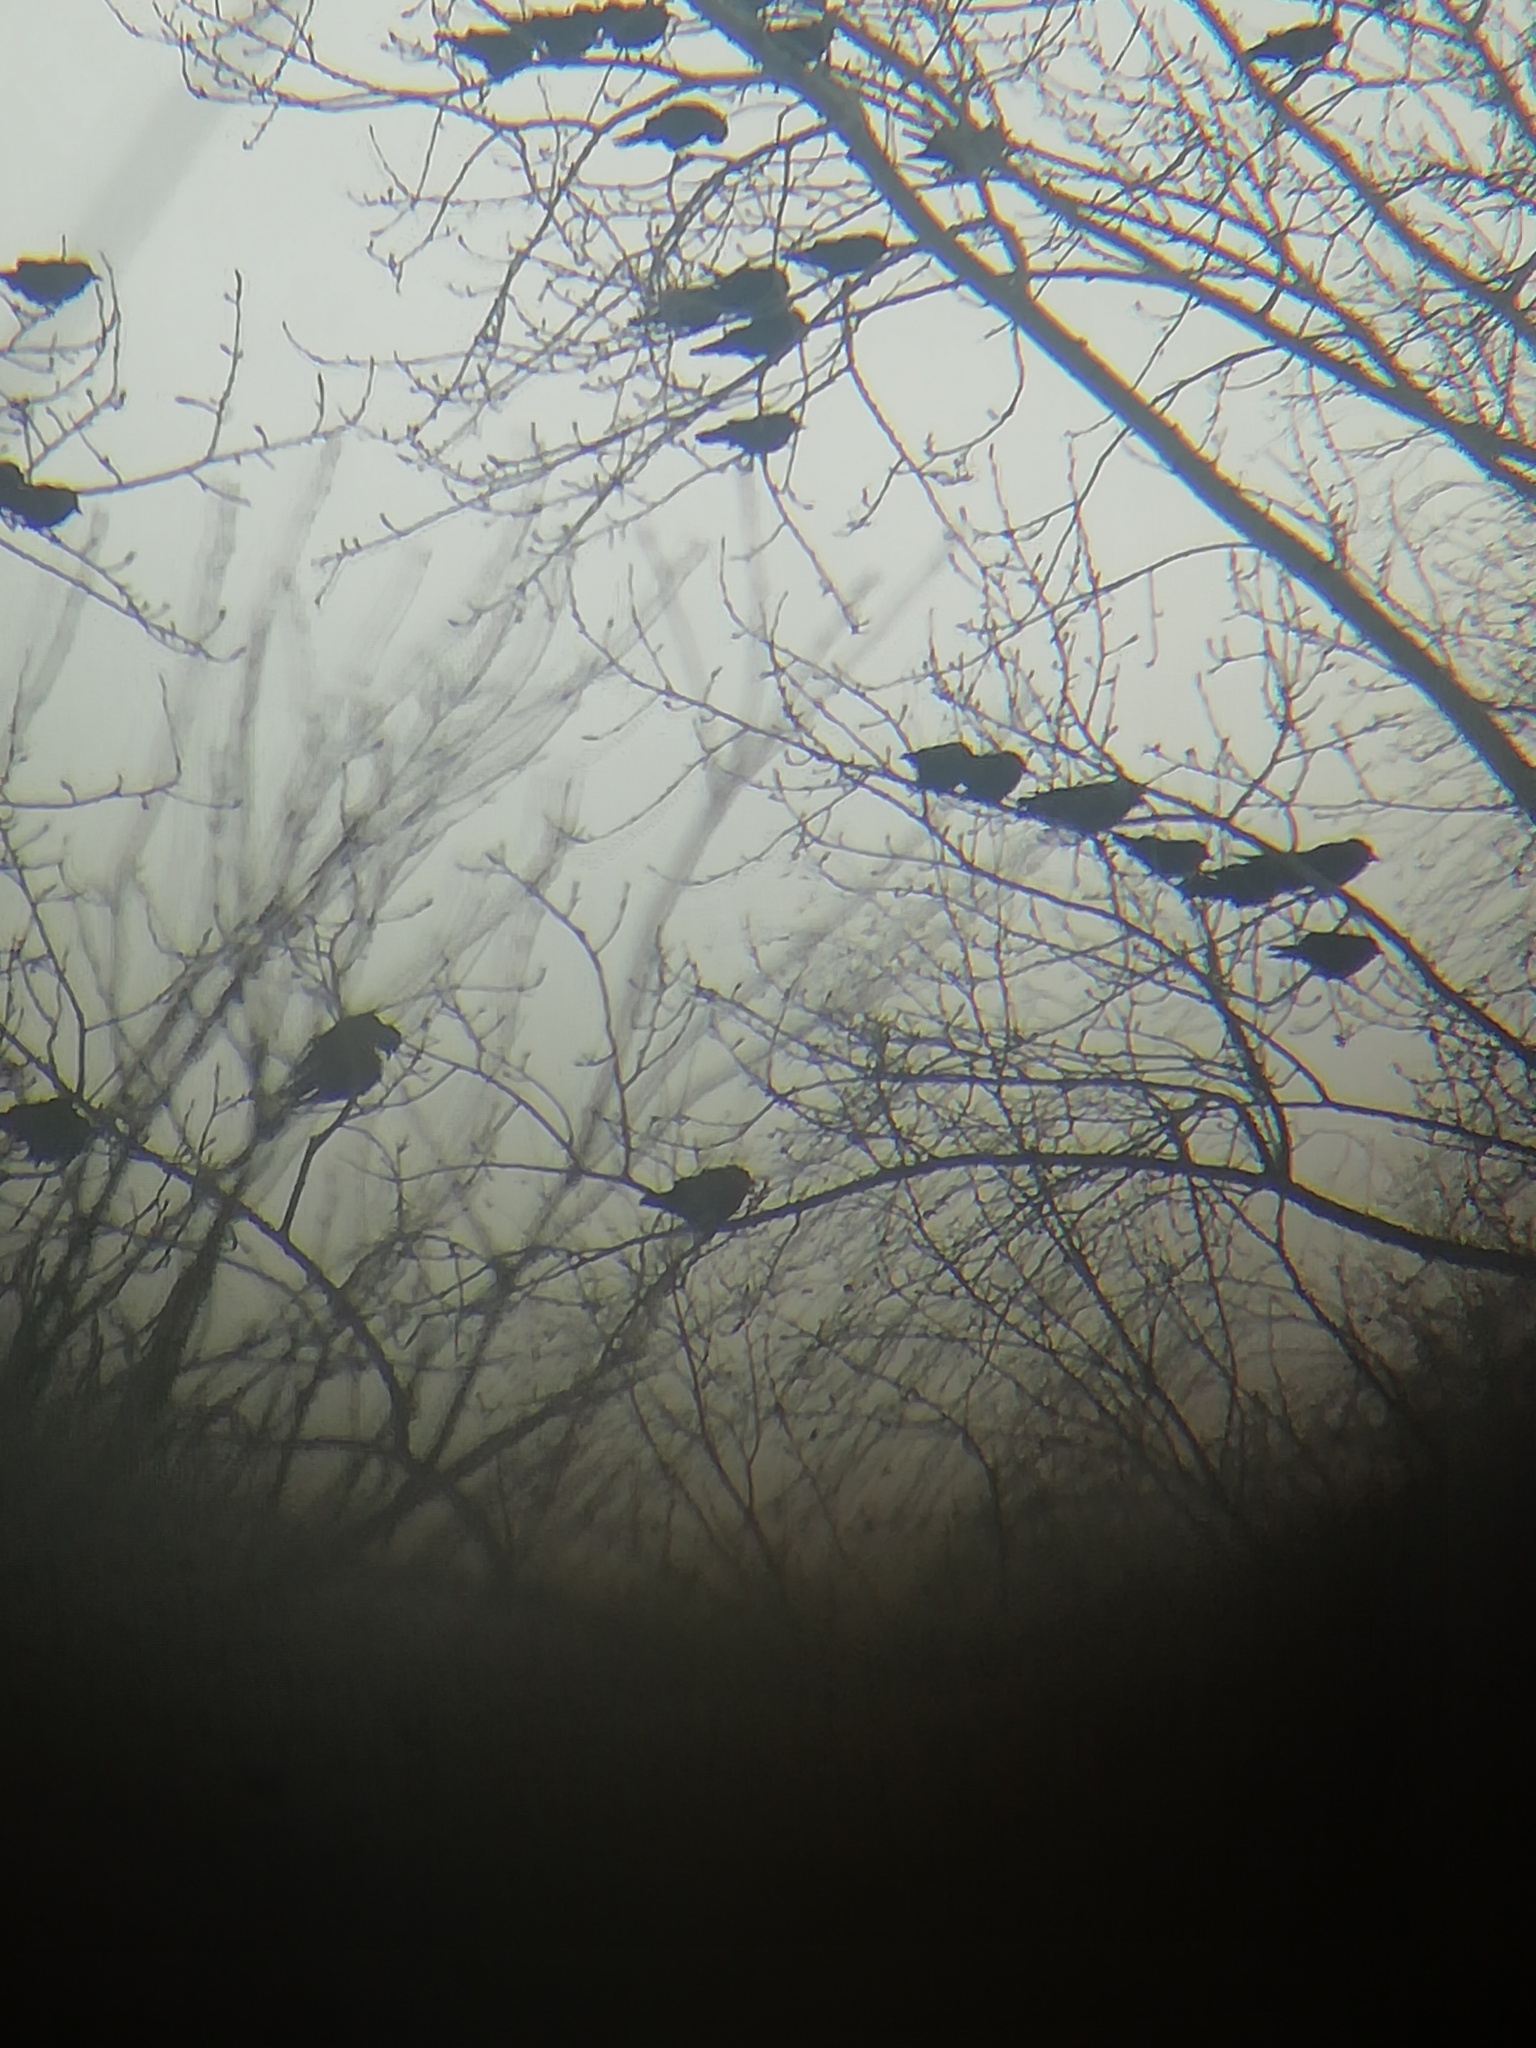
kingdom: Animalia
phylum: Chordata
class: Aves
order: Passeriformes
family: Corvidae
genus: Coloeus
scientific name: Coloeus monedula
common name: Western jackdaw
